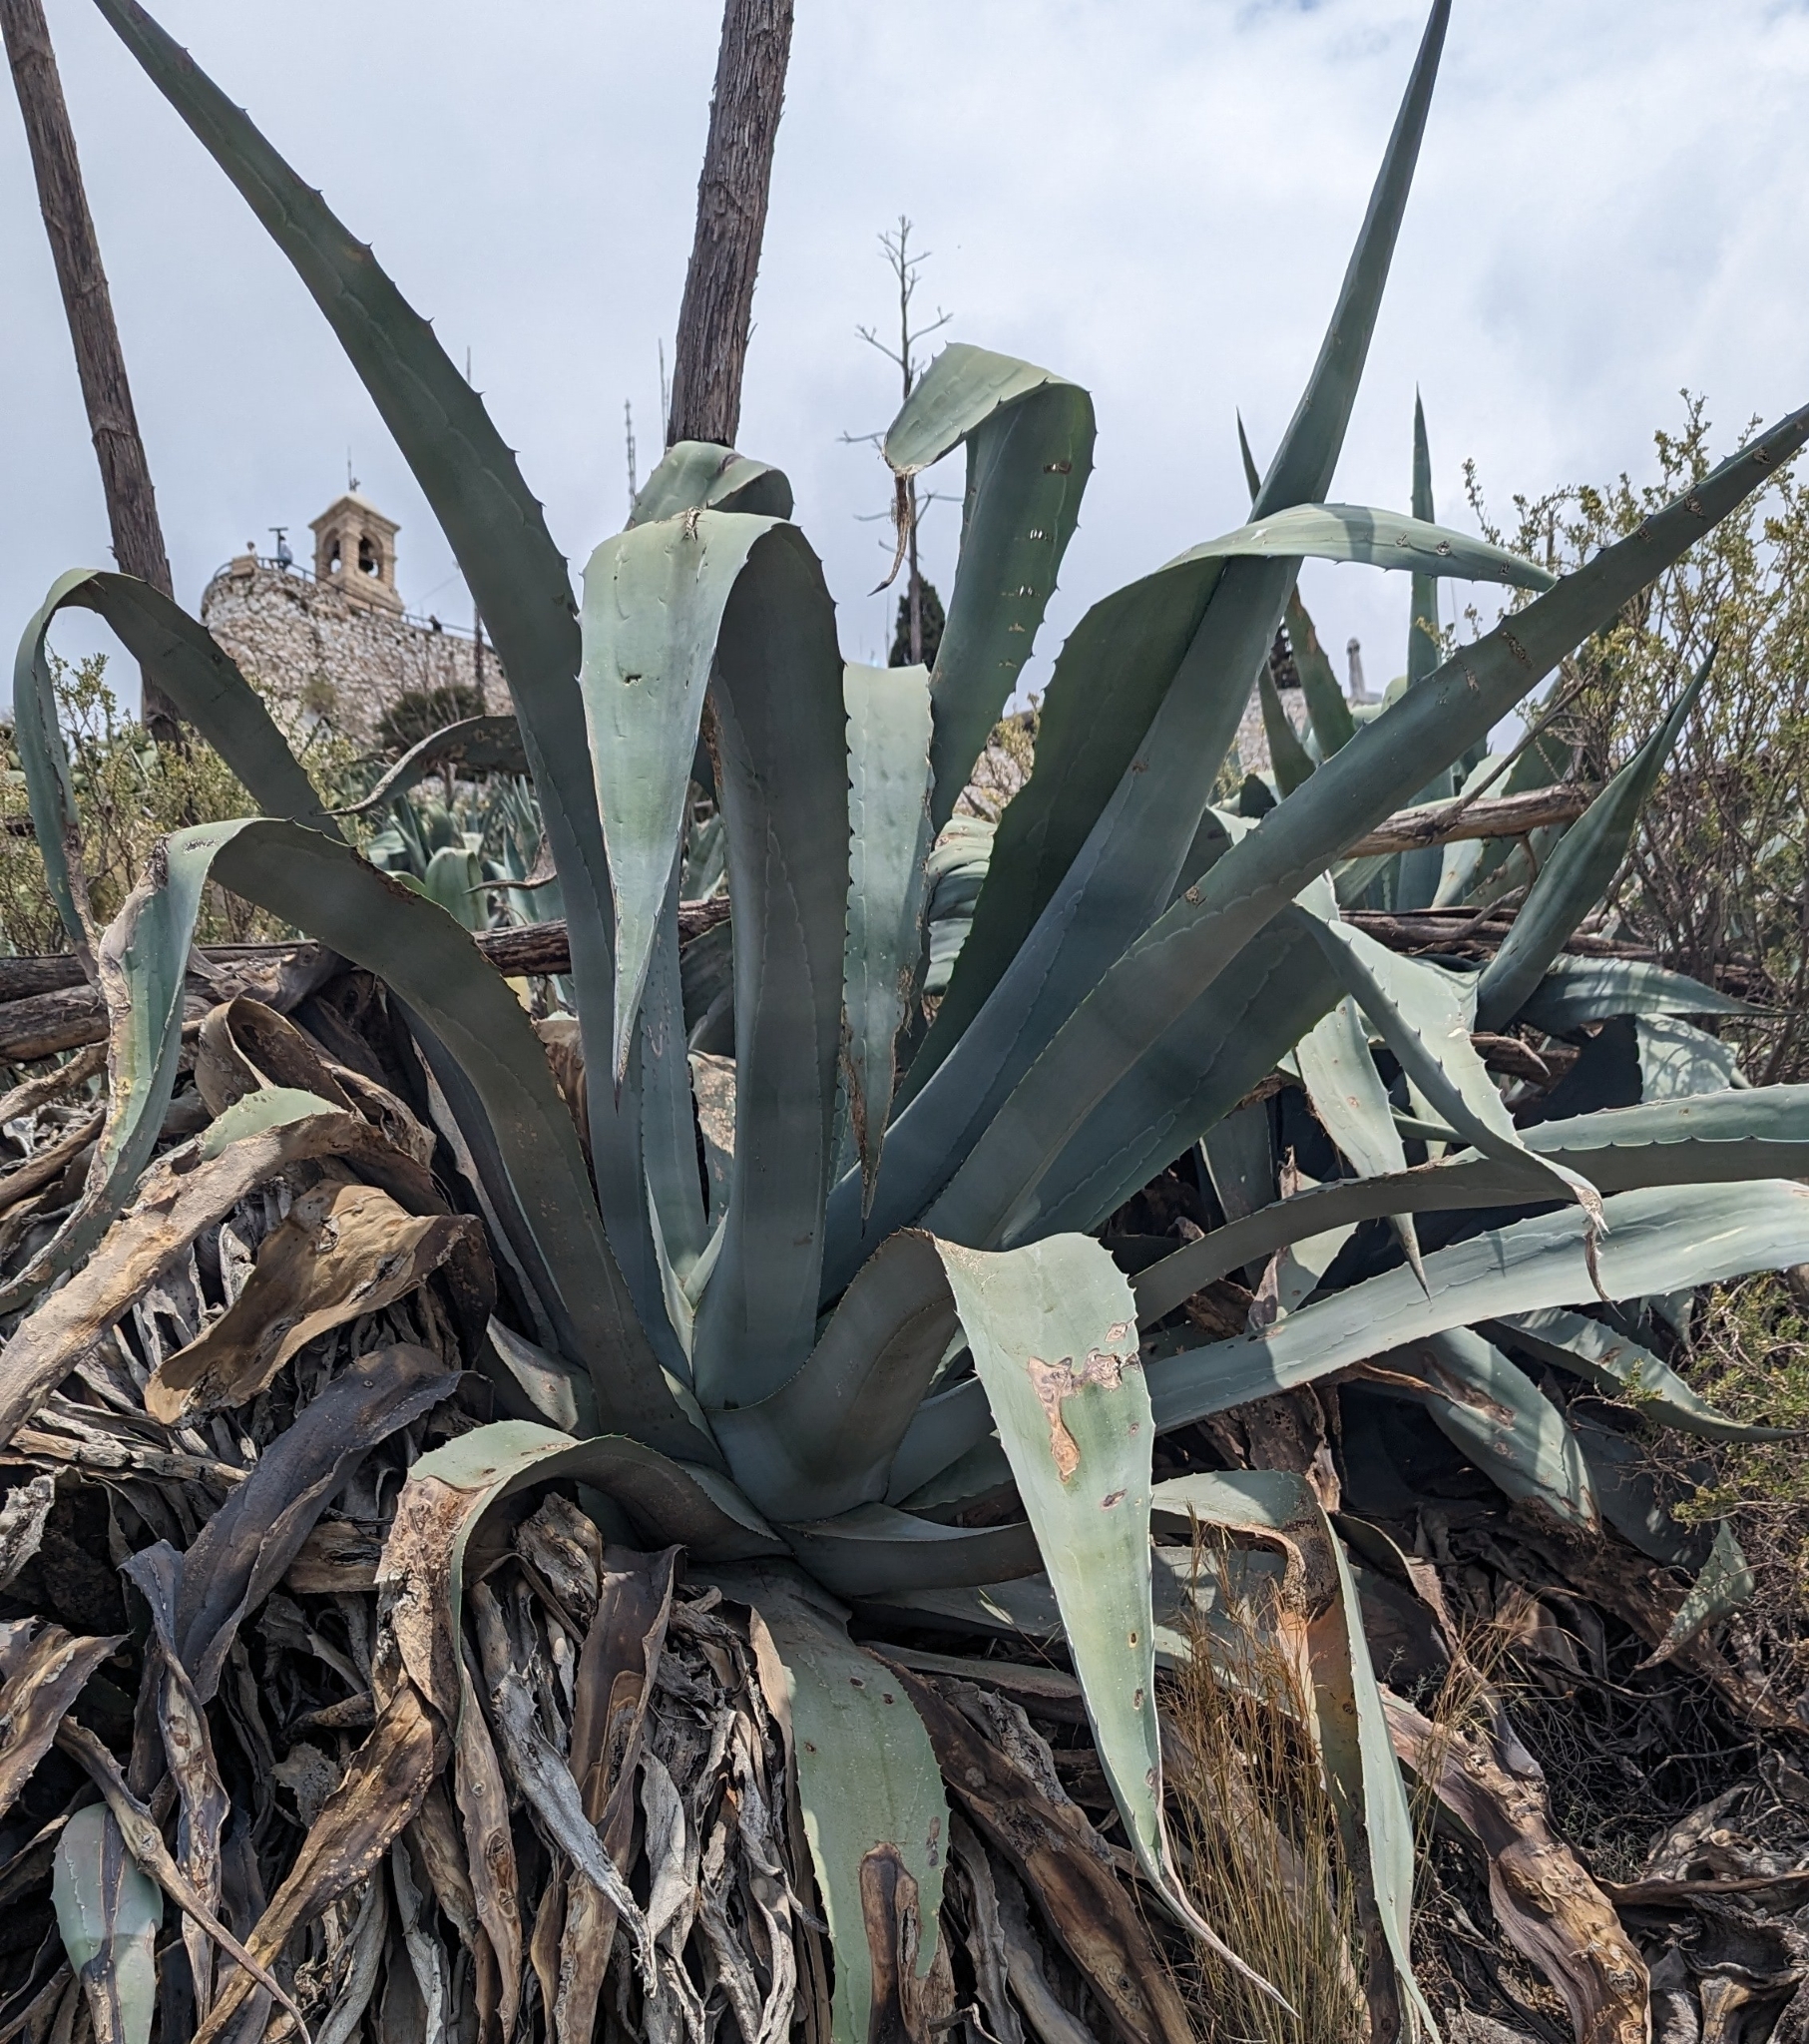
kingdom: Plantae
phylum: Tracheophyta
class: Liliopsida
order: Asparagales
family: Asparagaceae
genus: Agave
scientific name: Agave americana
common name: Centuryplant
